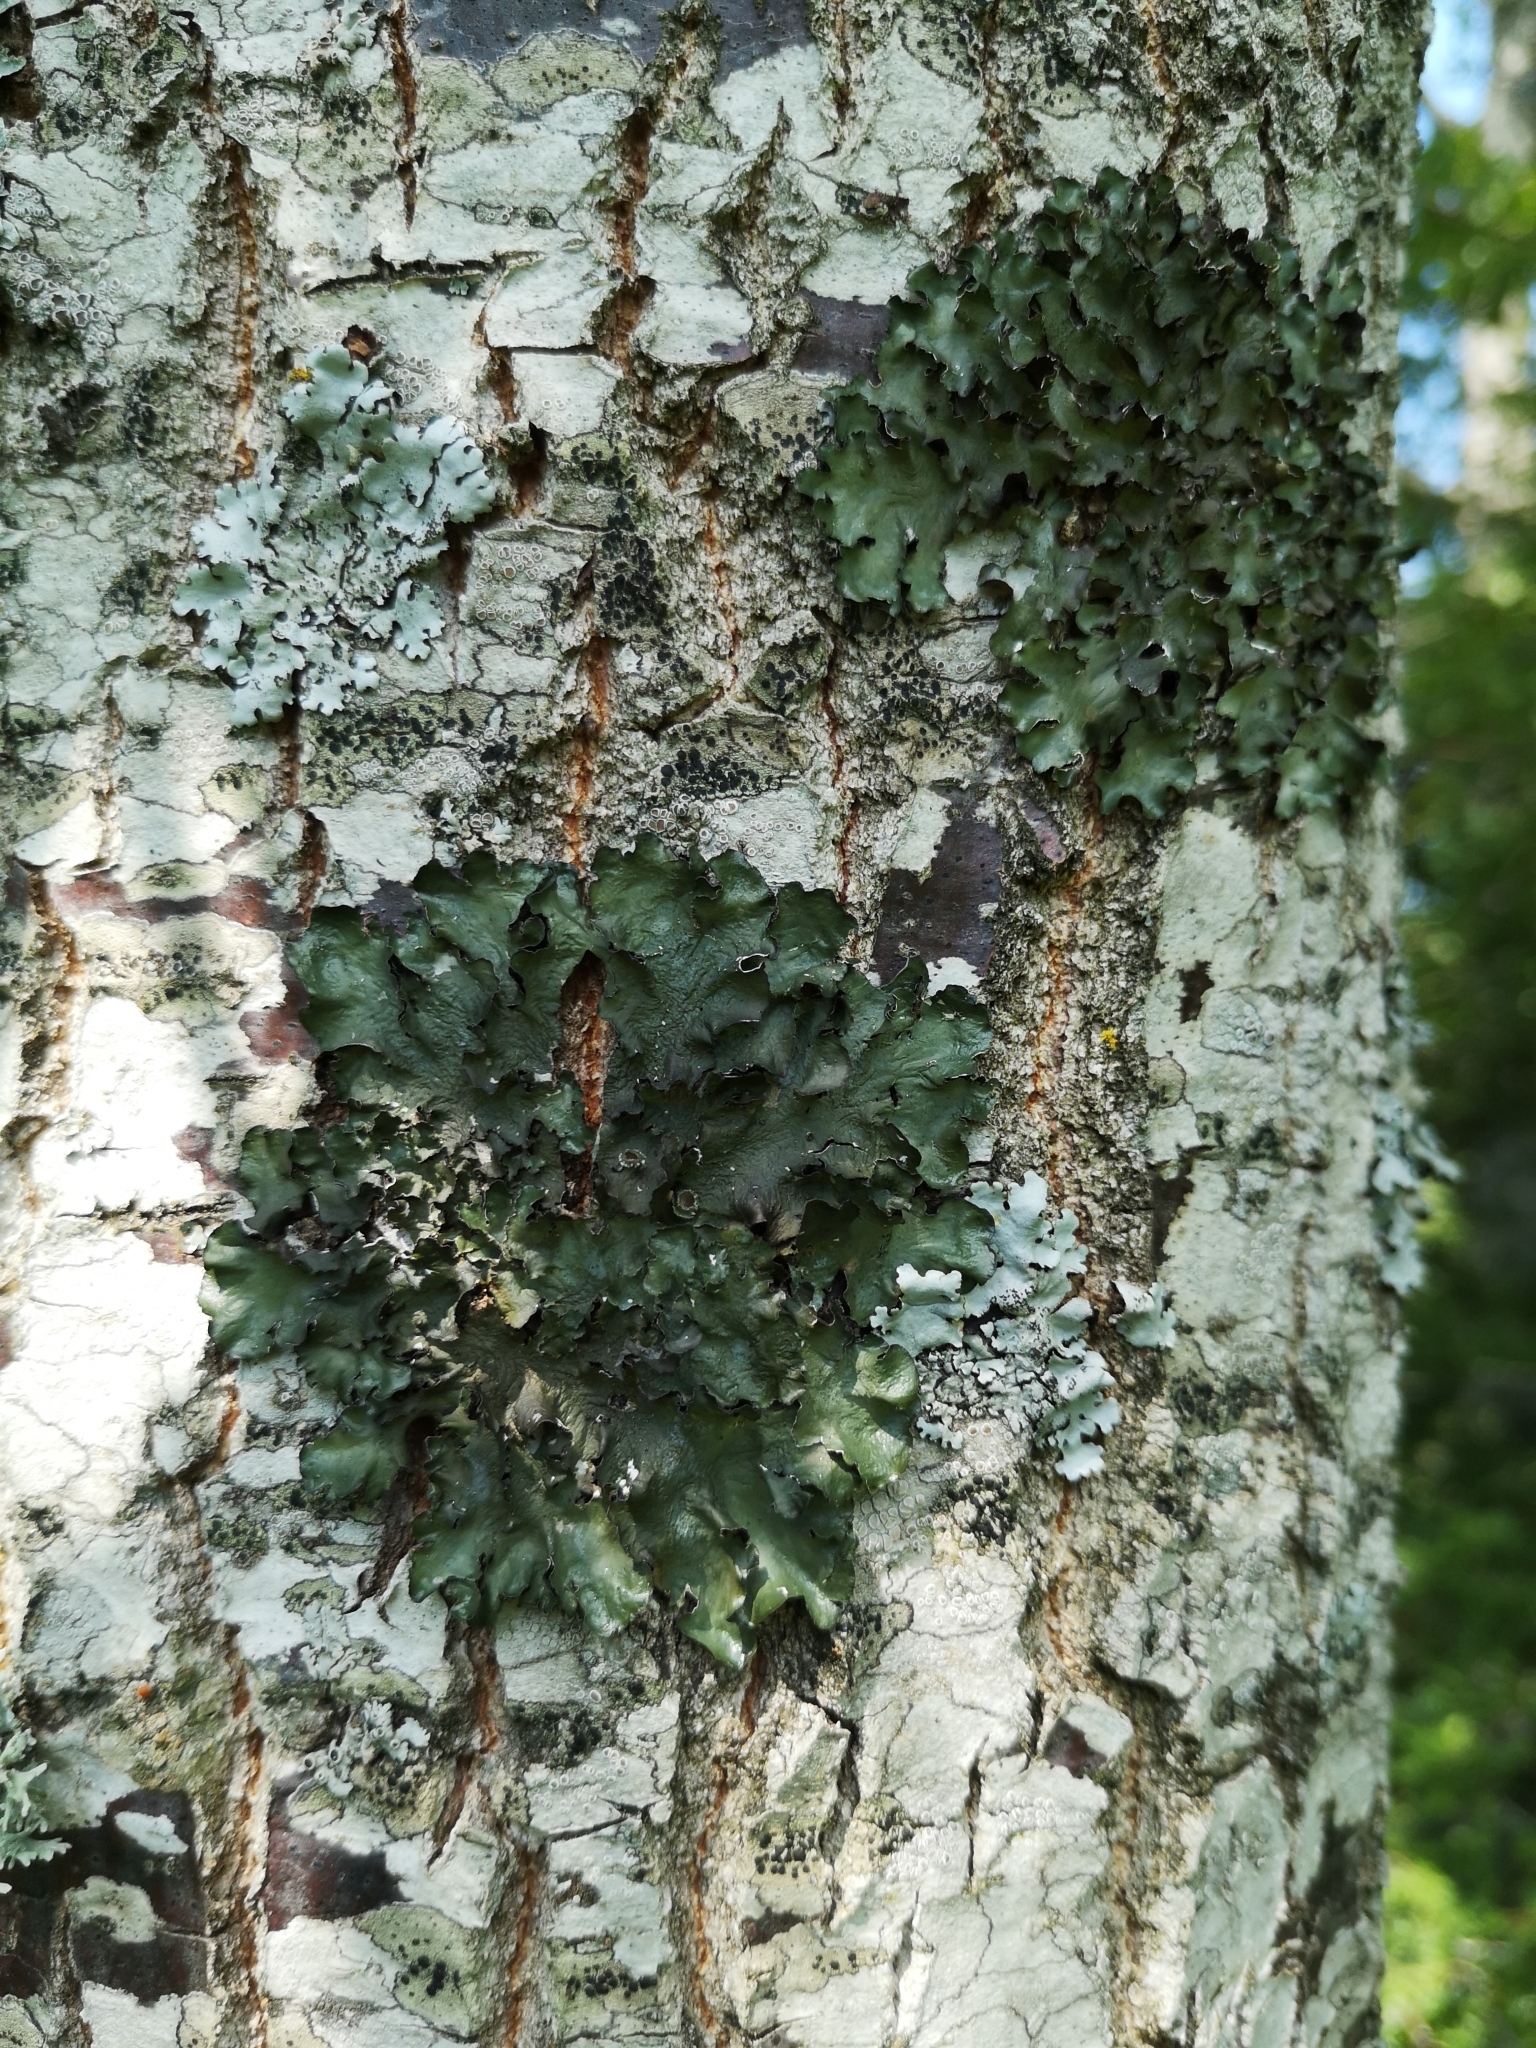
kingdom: Fungi
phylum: Ascomycota
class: Lecanoromycetes
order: Lecanorales
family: Parmeliaceae
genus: Pleurosticta
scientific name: Pleurosticta acetabulum
